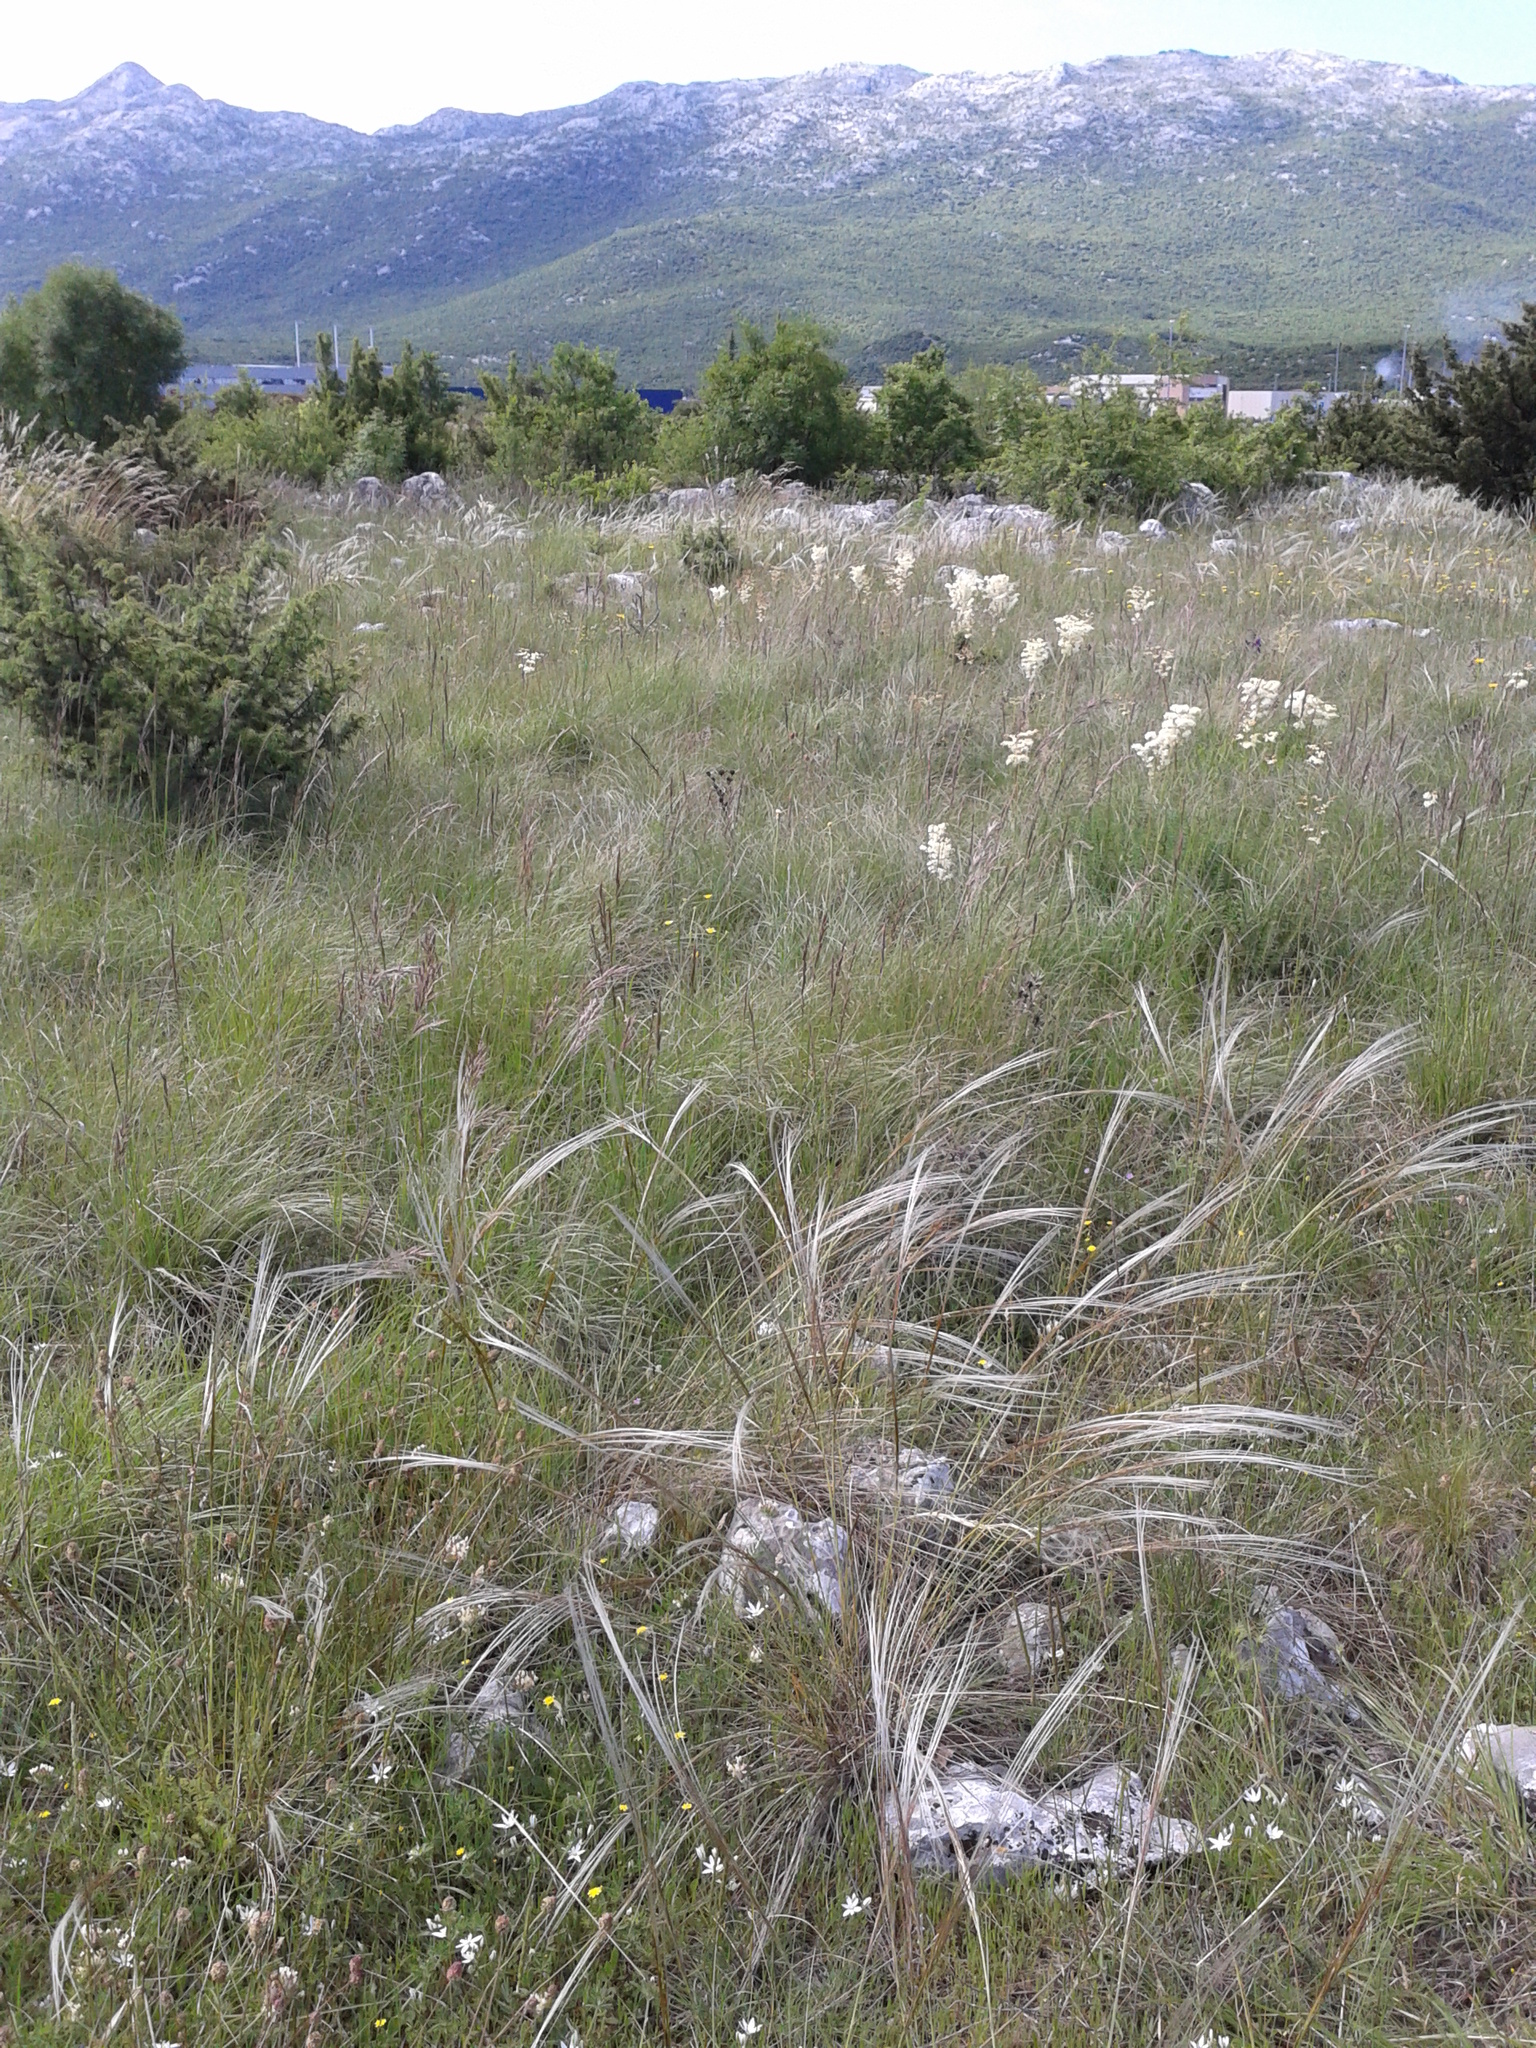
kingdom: Plantae
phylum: Tracheophyta
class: Liliopsida
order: Poales
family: Poaceae
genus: Stipa
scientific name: Stipa pennata
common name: European feather grass
